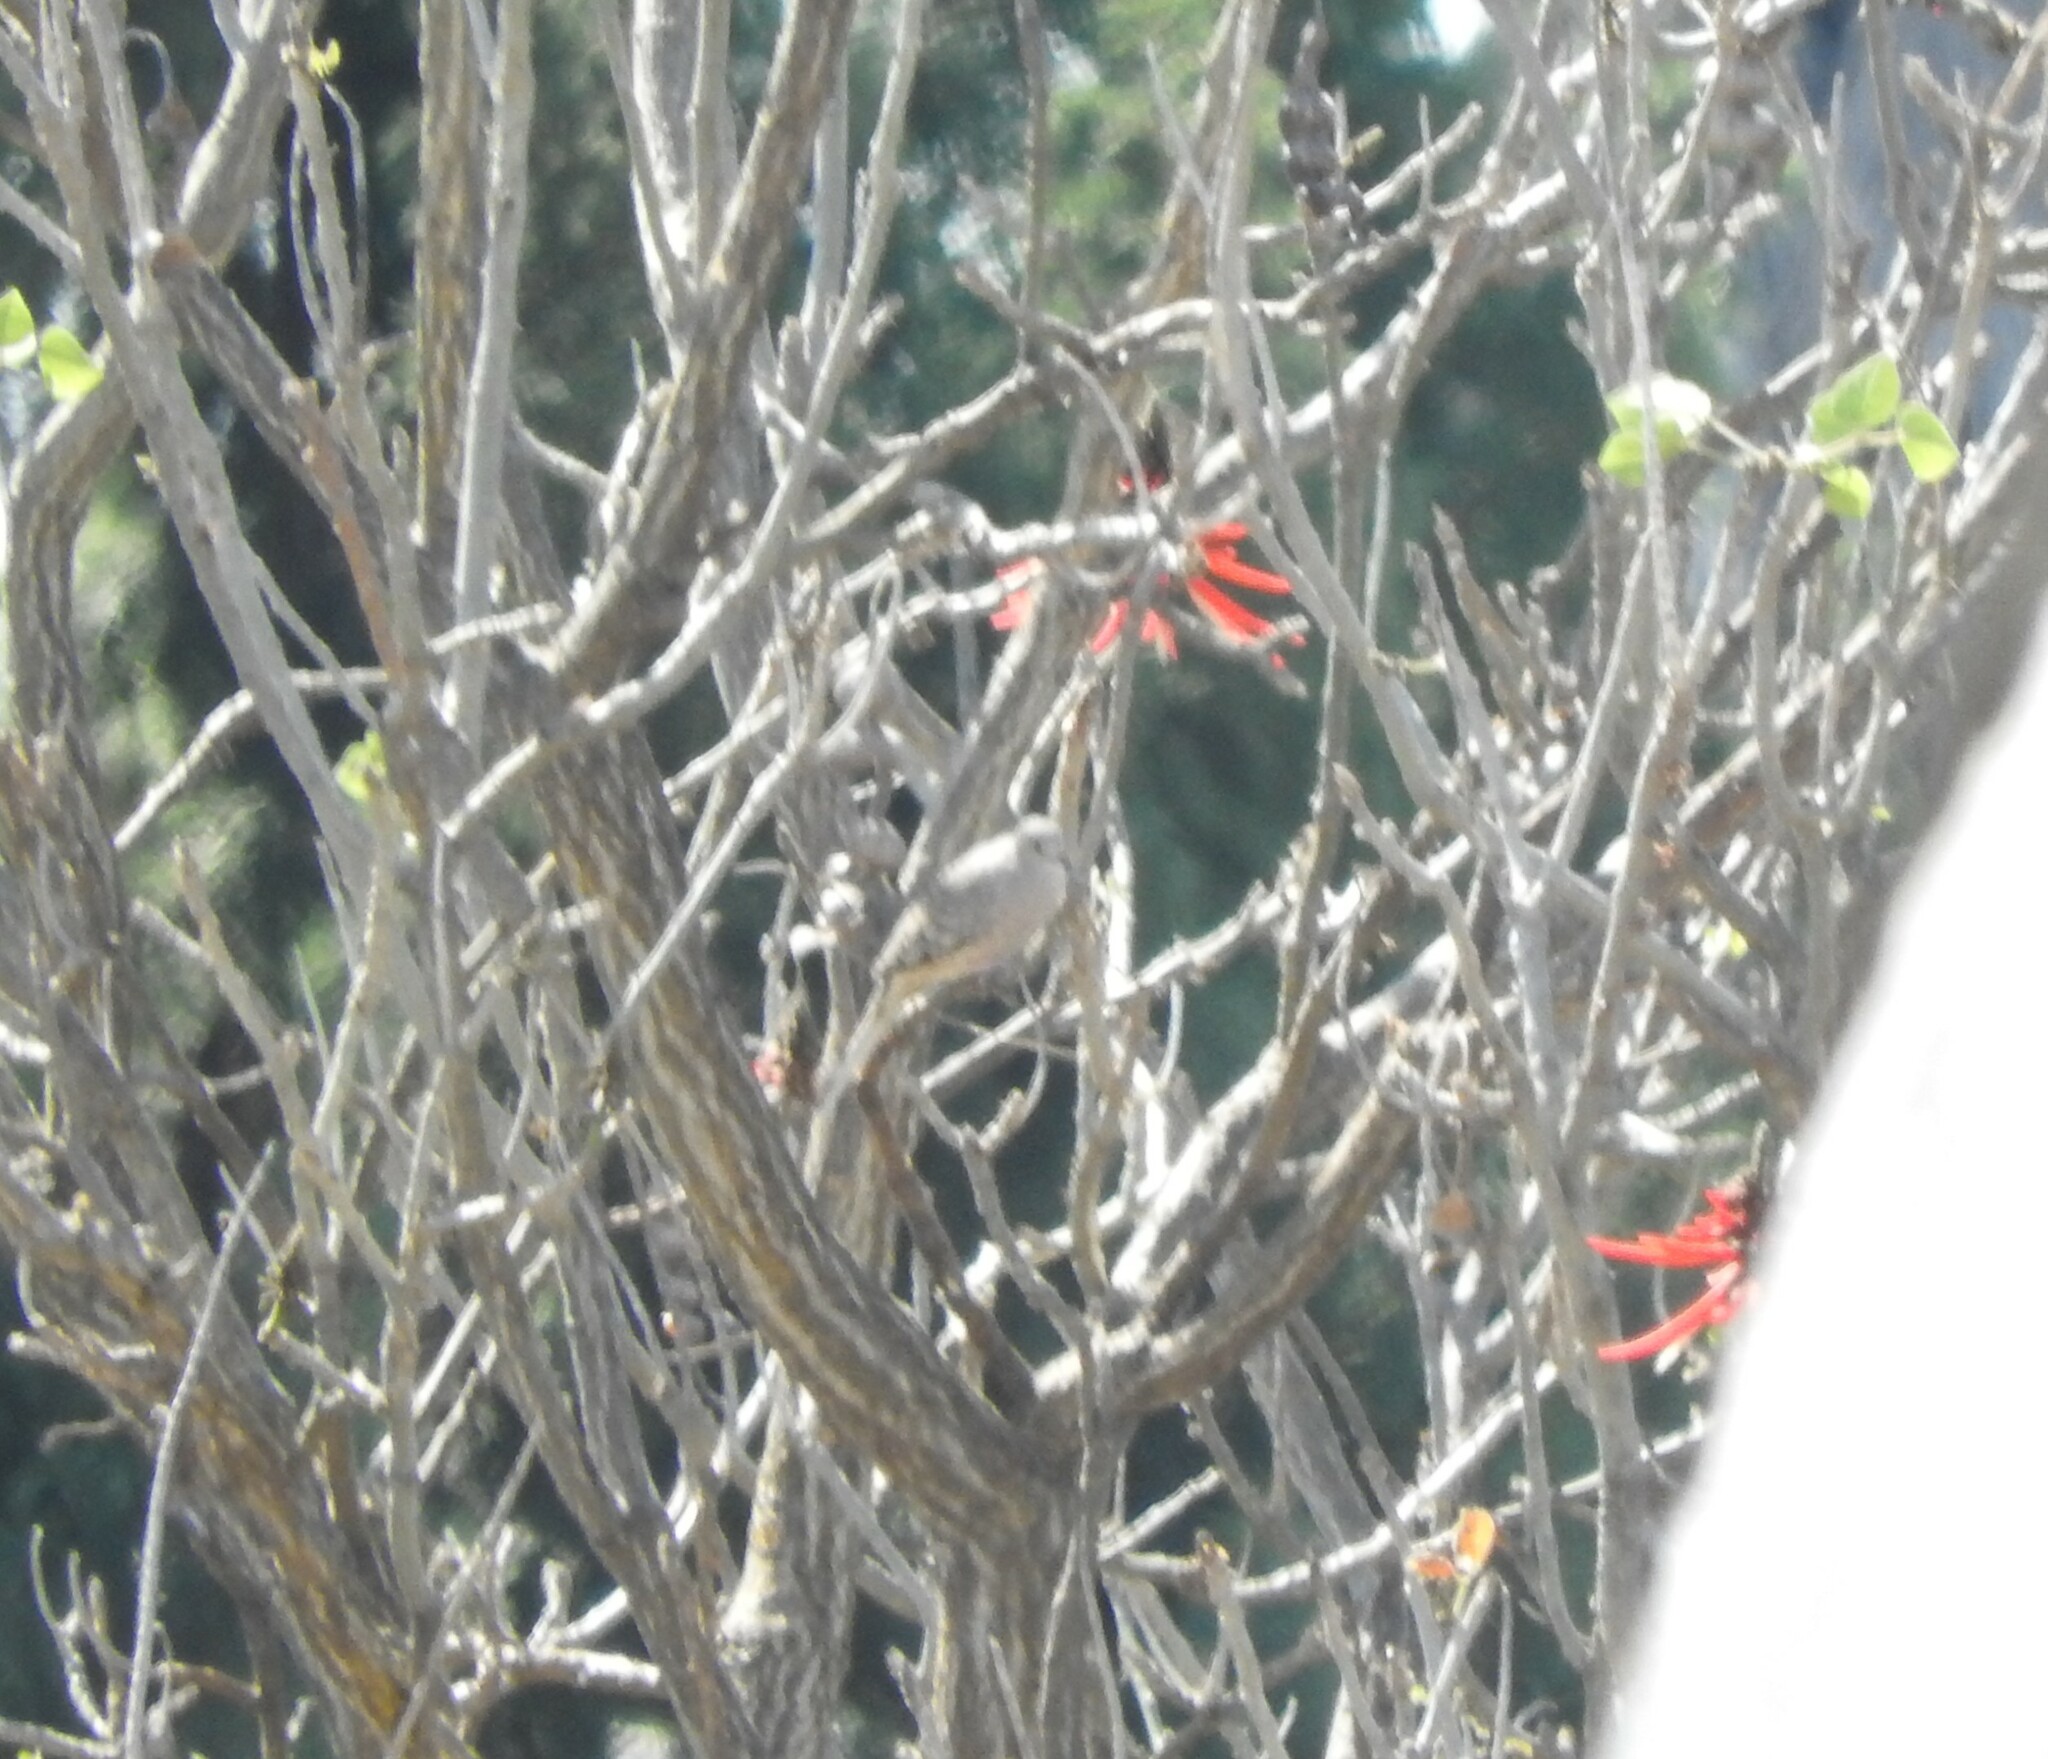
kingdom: Plantae
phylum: Tracheophyta
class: Magnoliopsida
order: Fabales
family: Fabaceae
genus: Erythrina
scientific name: Erythrina americana
